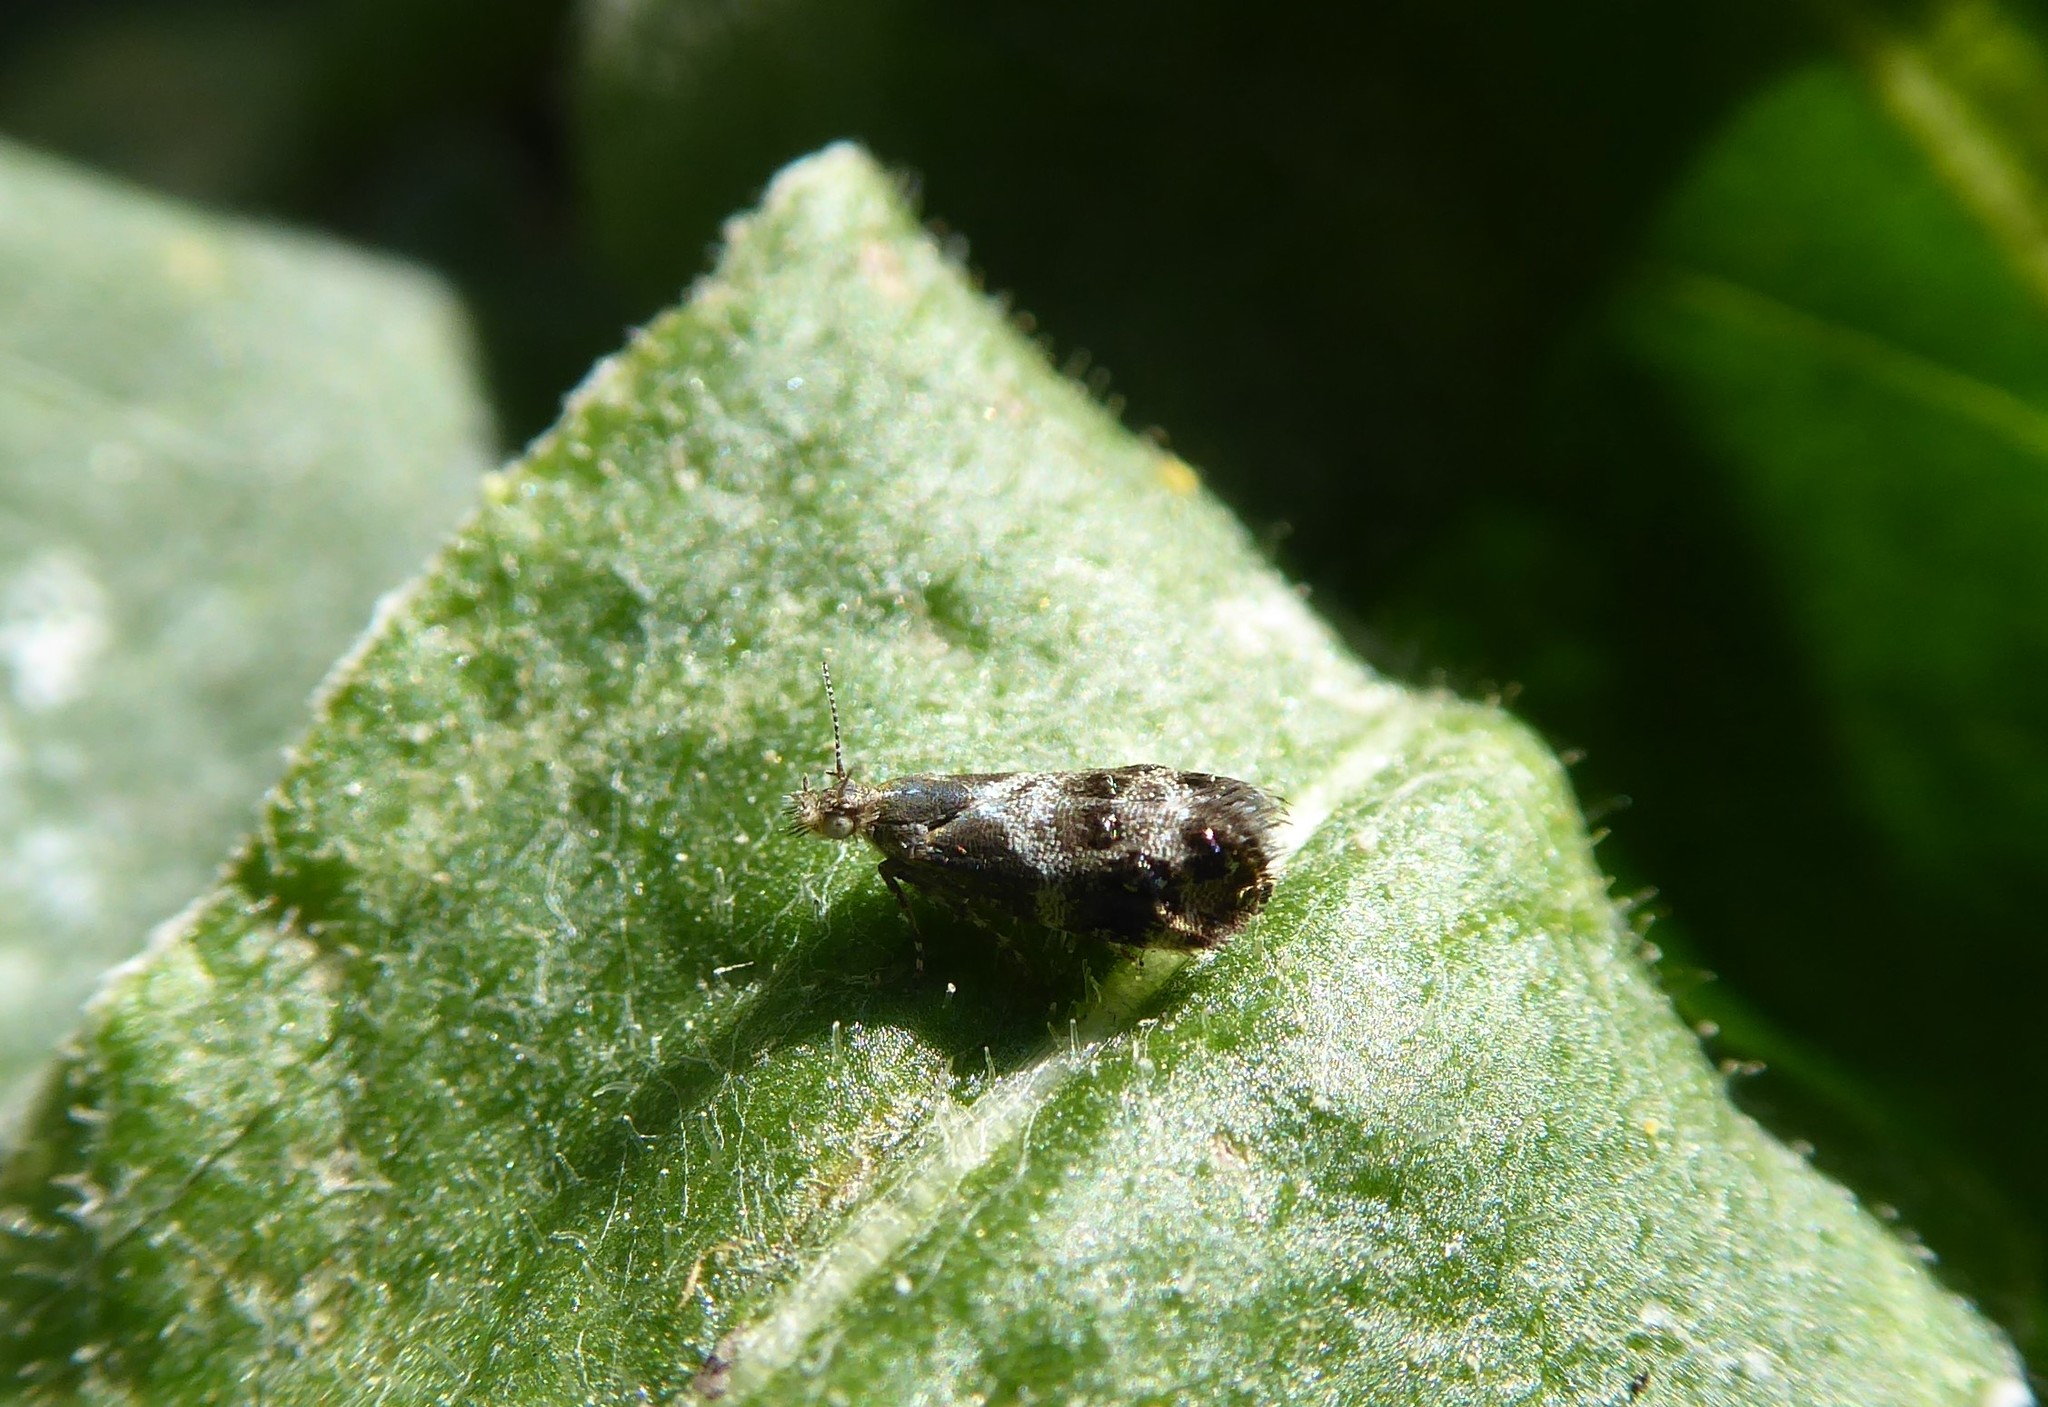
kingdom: Animalia
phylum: Arthropoda
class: Insecta
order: Lepidoptera
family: Choreutidae
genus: Tebenna
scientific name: Tebenna micalis
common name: Vagrant twitcher
